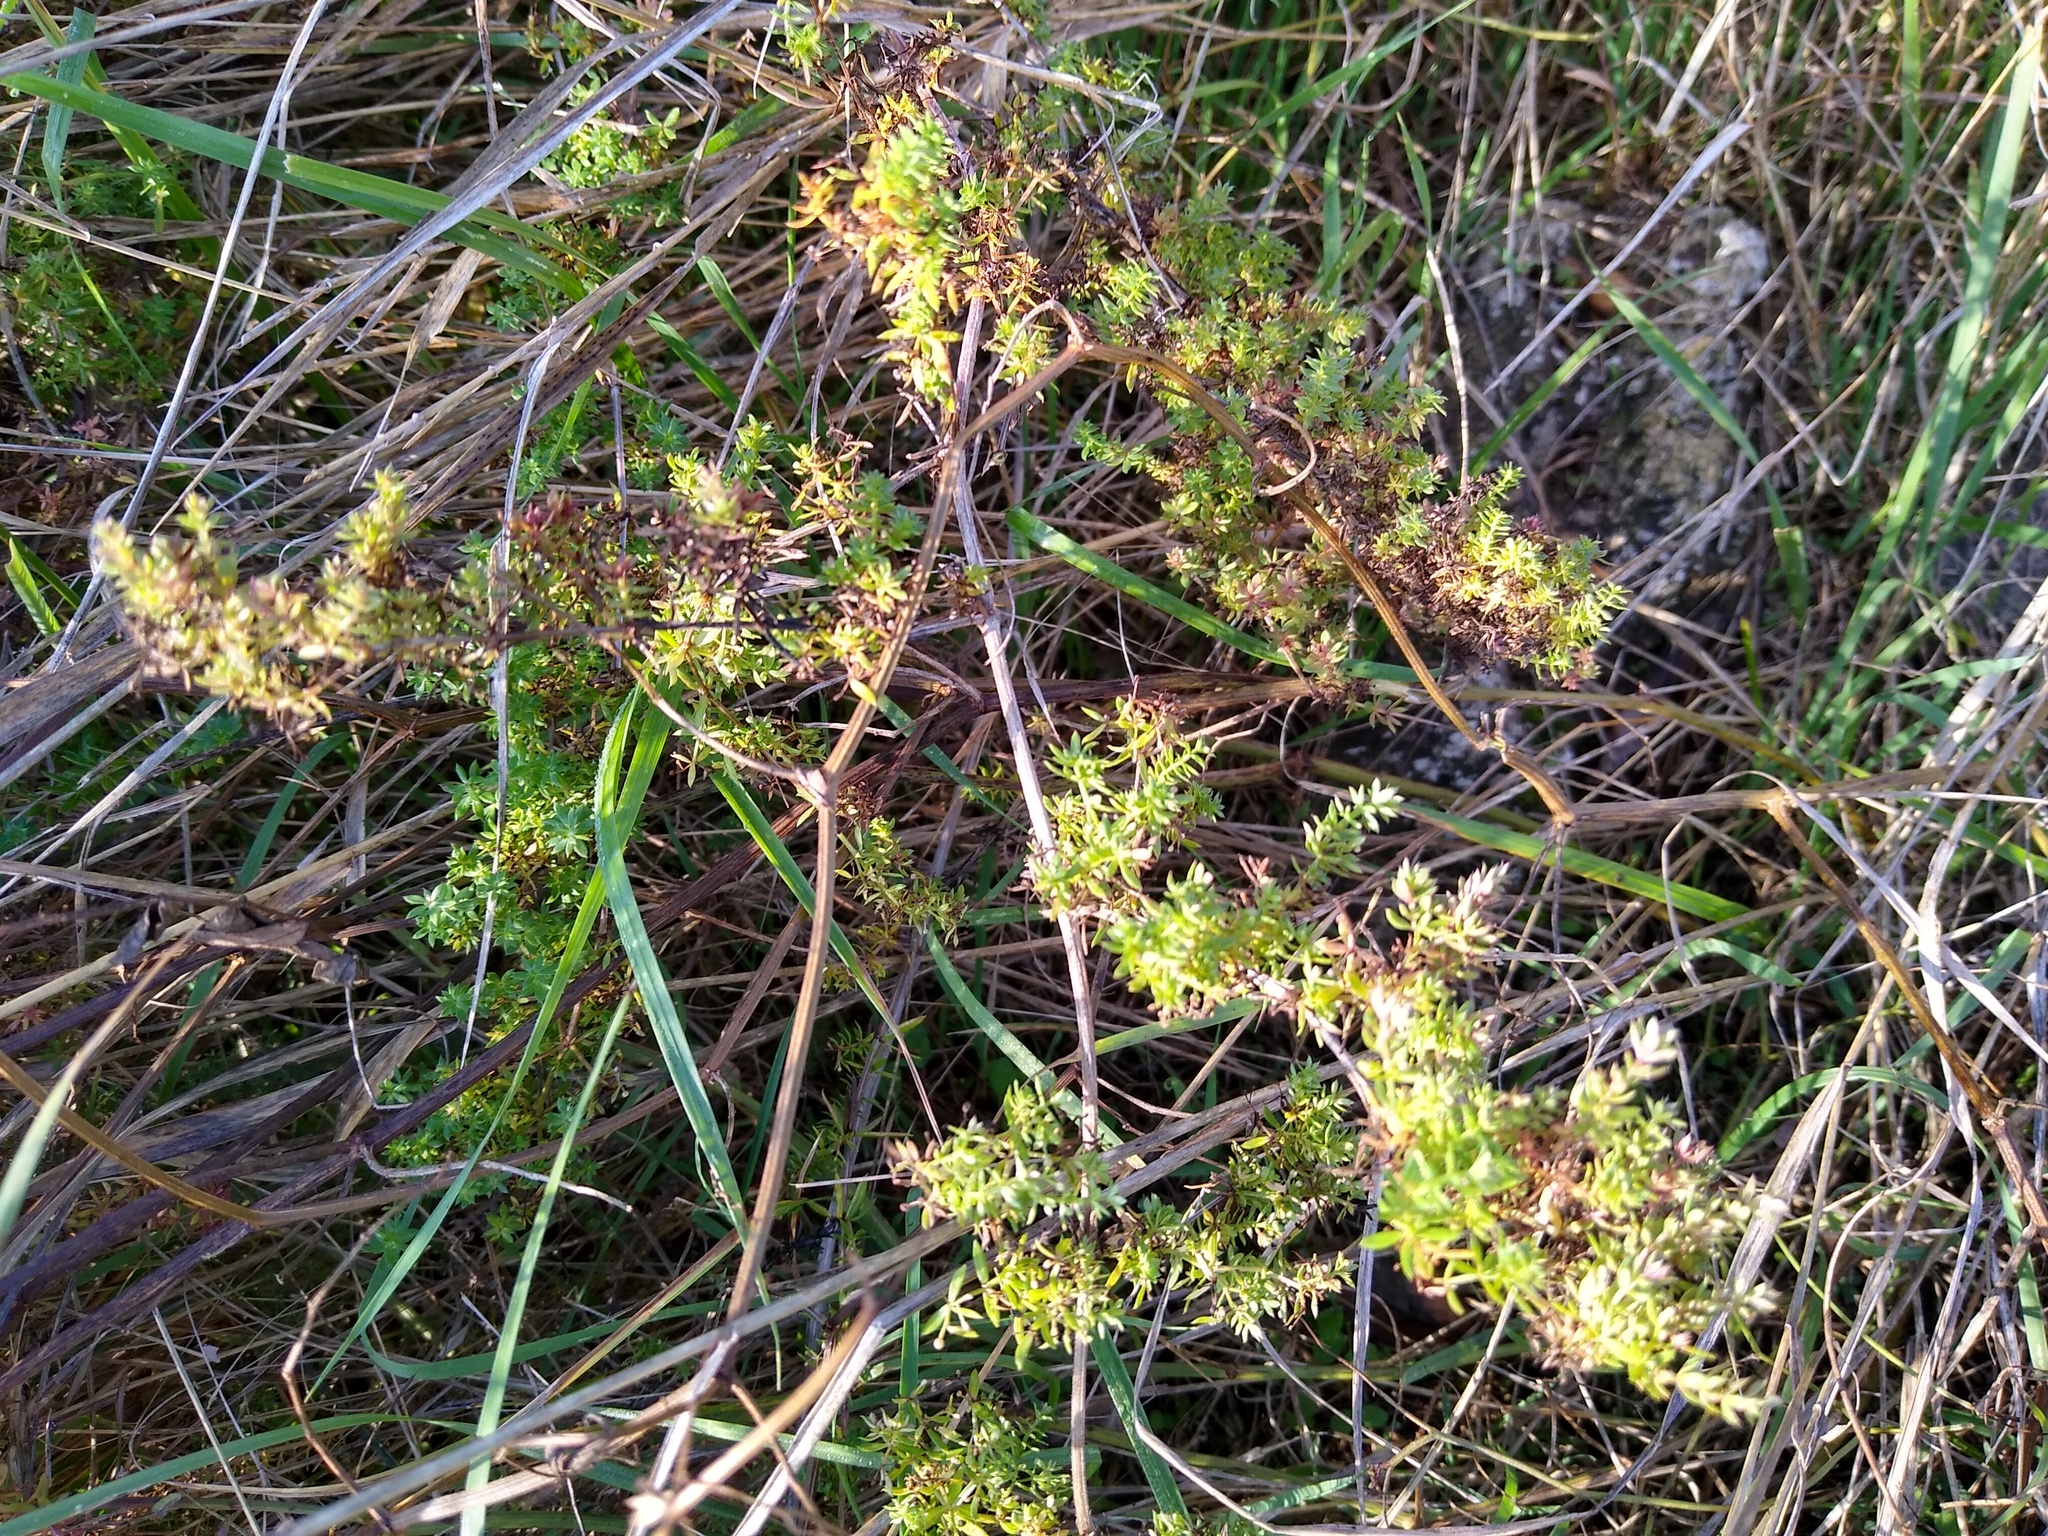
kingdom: Plantae
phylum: Tracheophyta
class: Magnoliopsida
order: Gentianales
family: Rubiaceae
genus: Galium
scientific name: Galium humifusum
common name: Spreading bedstraw
